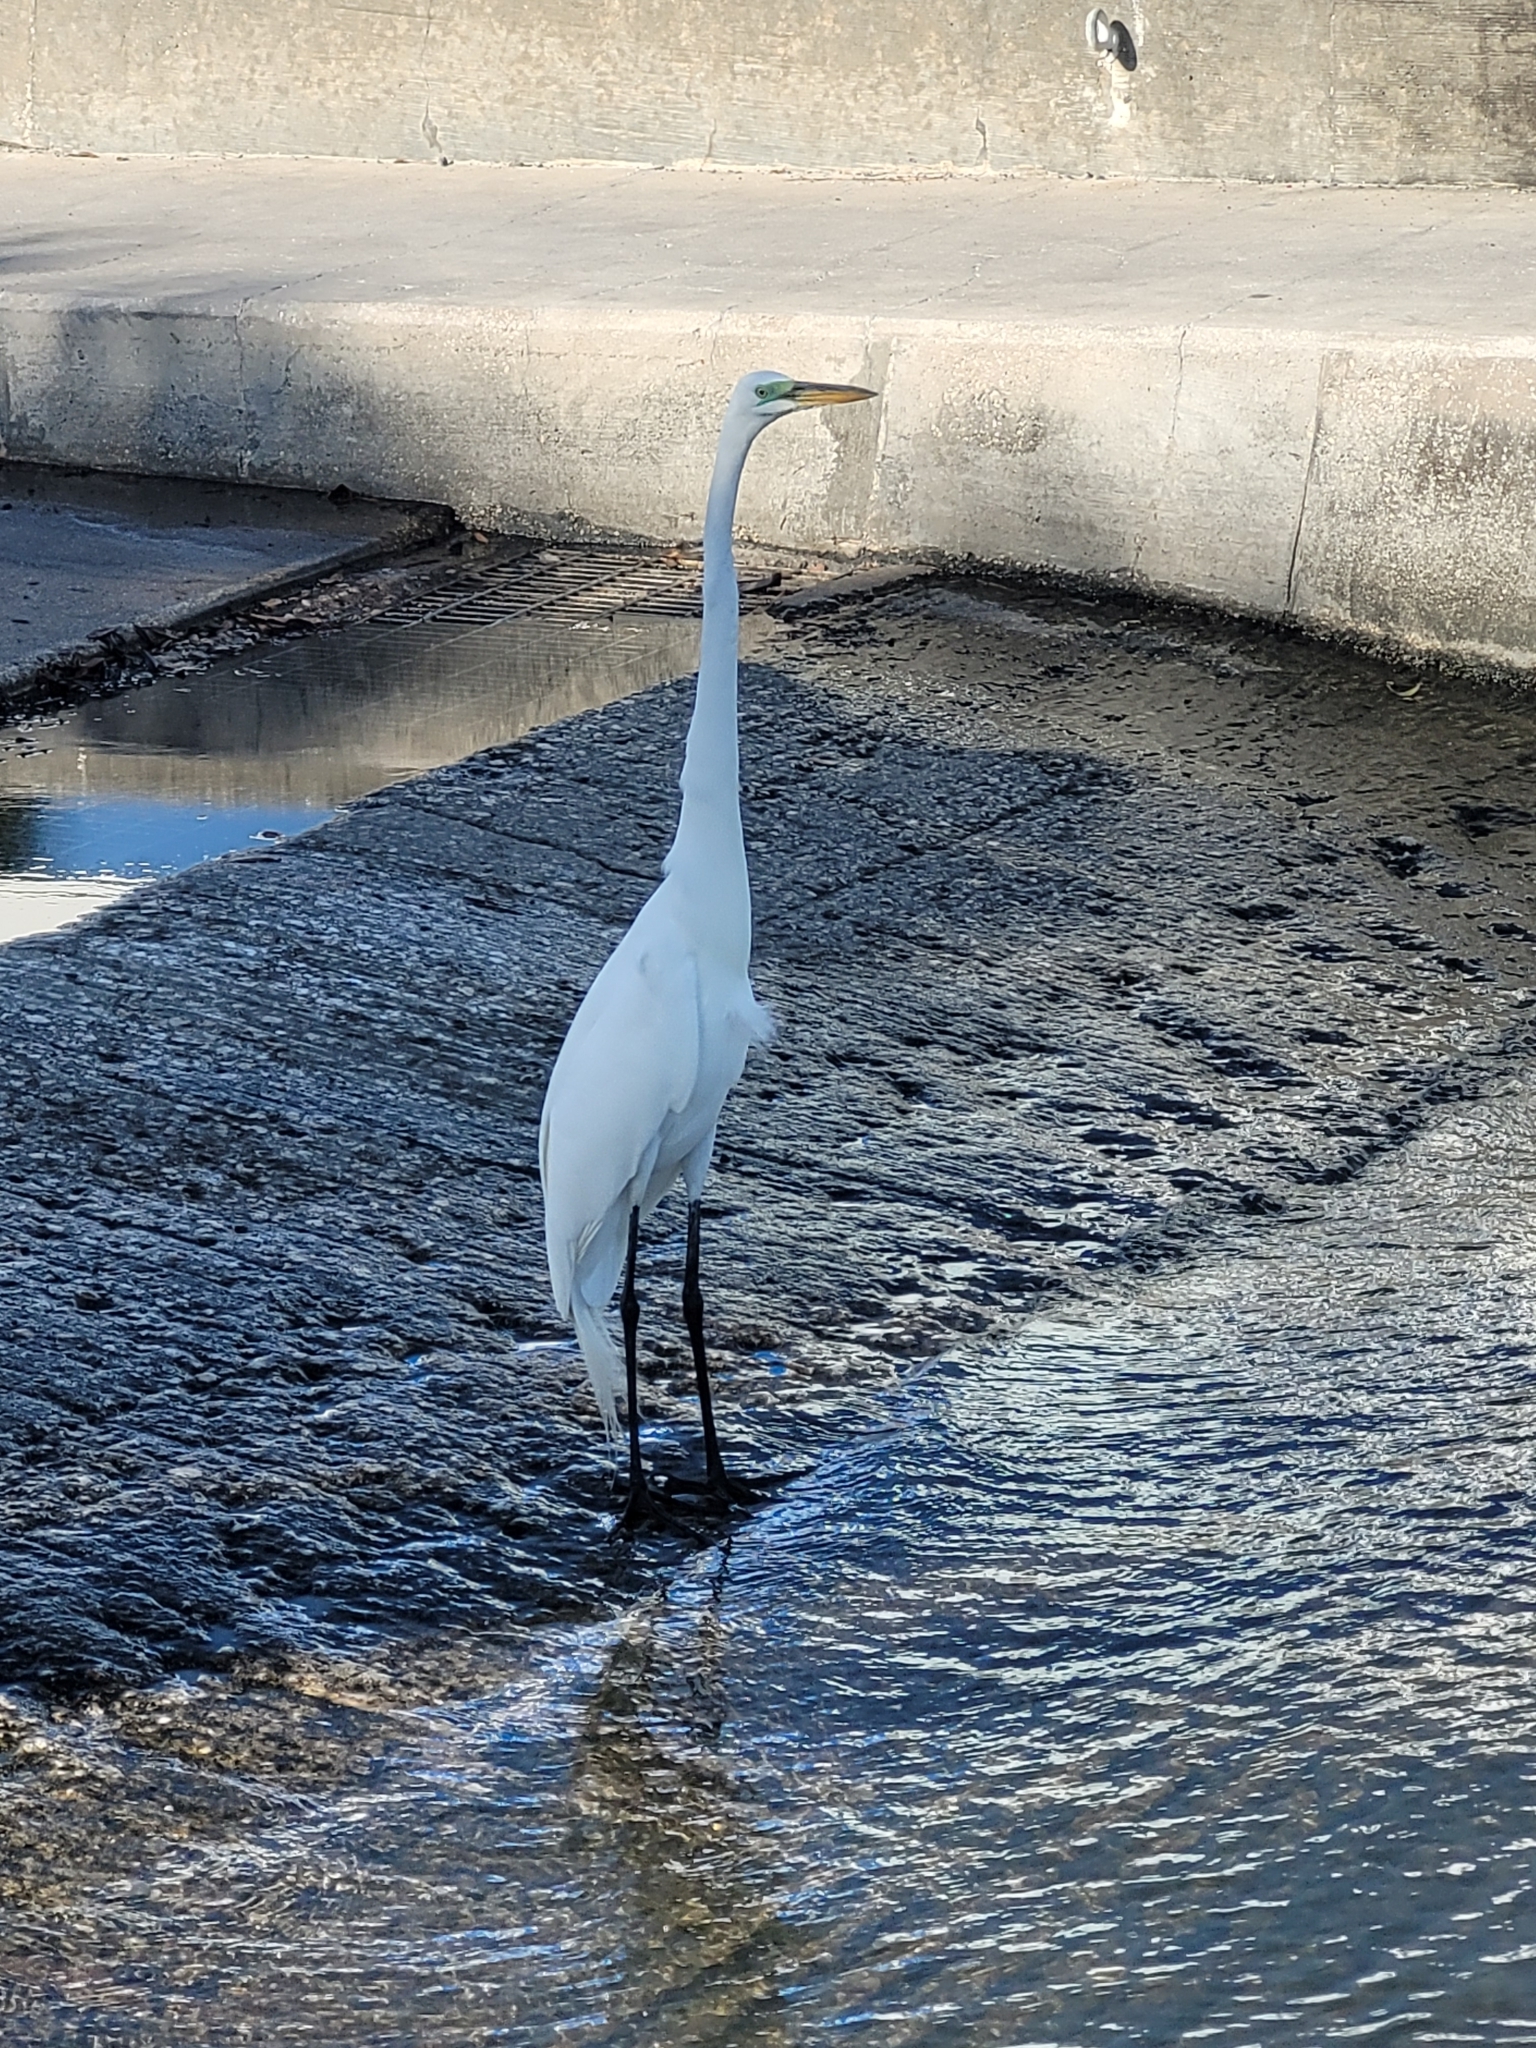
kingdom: Animalia
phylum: Chordata
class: Aves
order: Pelecaniformes
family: Ardeidae
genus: Ardea
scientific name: Ardea alba
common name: Great egret
